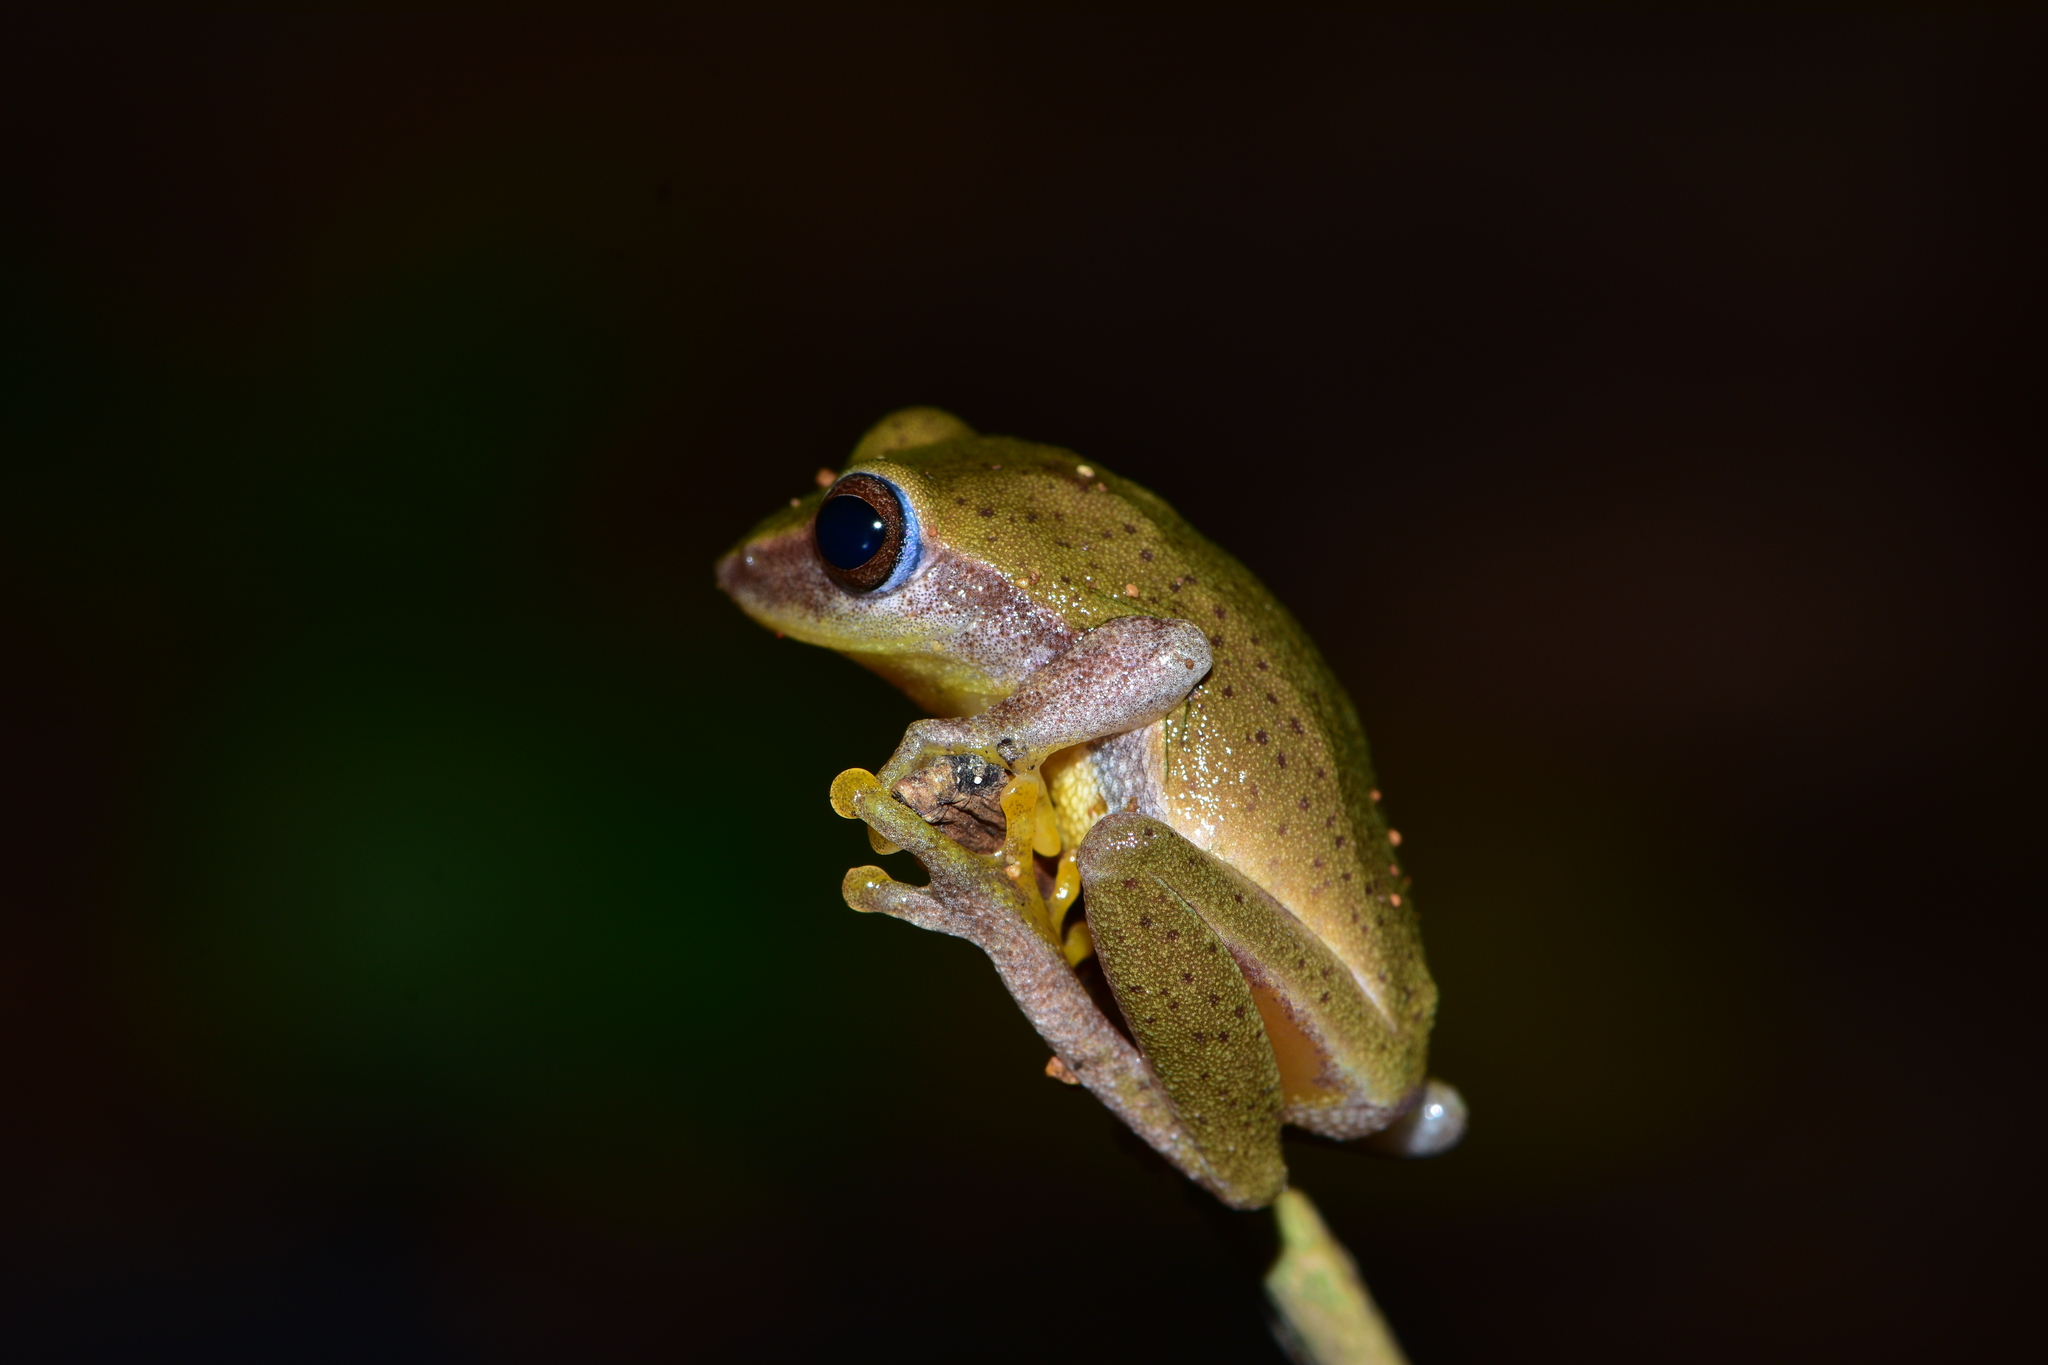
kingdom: Animalia
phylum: Chordata
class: Amphibia
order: Anura
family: Rhacophoridae
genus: Raorchestes
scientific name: Raorchestes akroparallagi
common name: Variable bush frog
